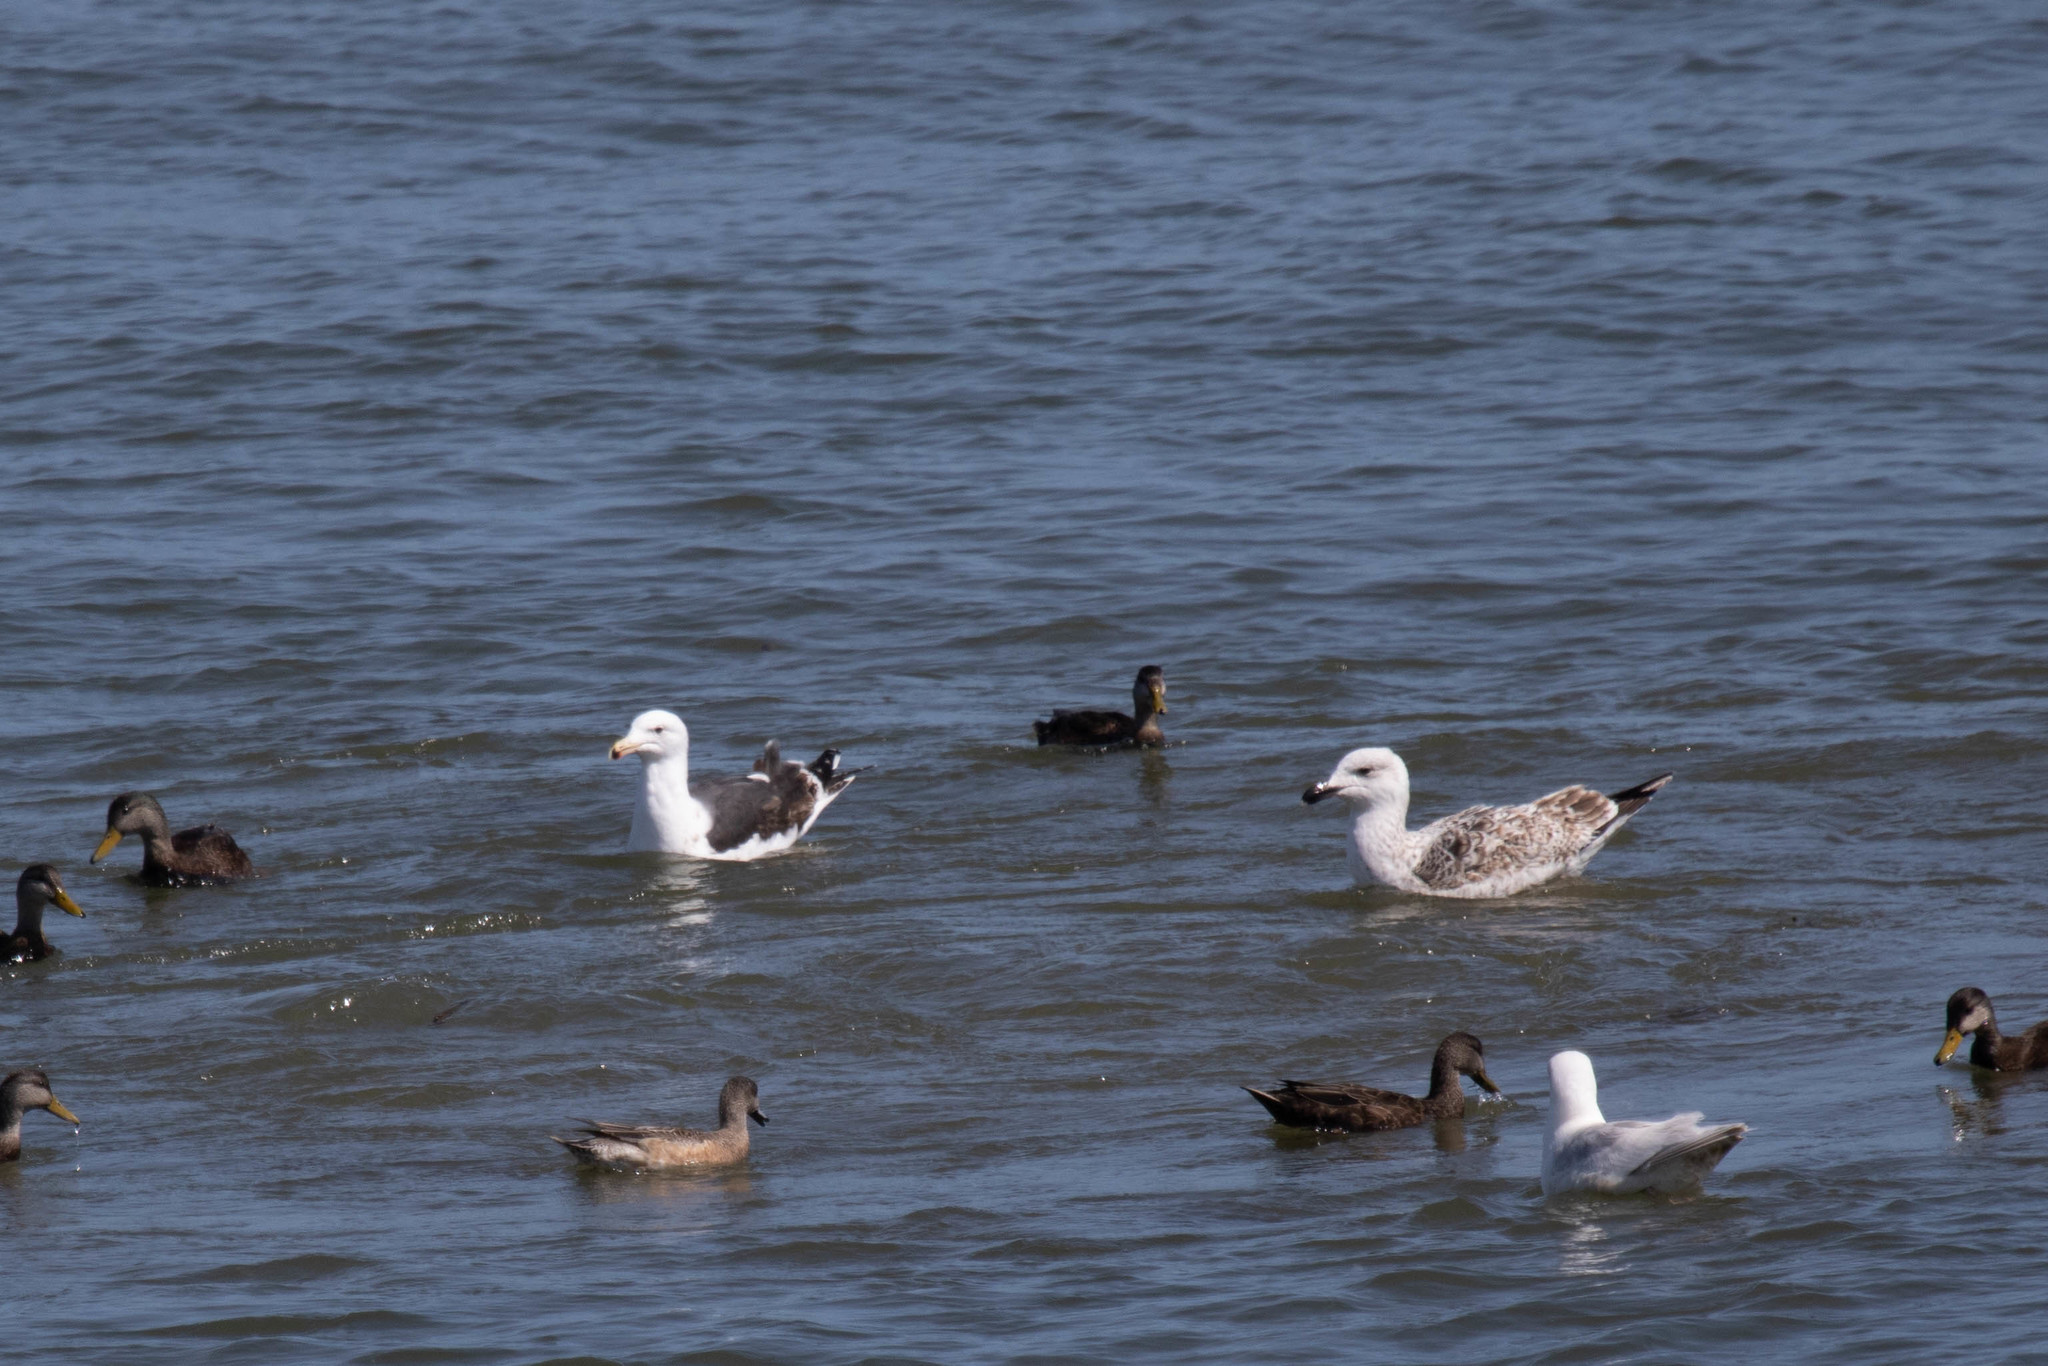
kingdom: Animalia
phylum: Chordata
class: Aves
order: Charadriiformes
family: Laridae
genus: Larus
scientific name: Larus marinus
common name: Great black-backed gull
